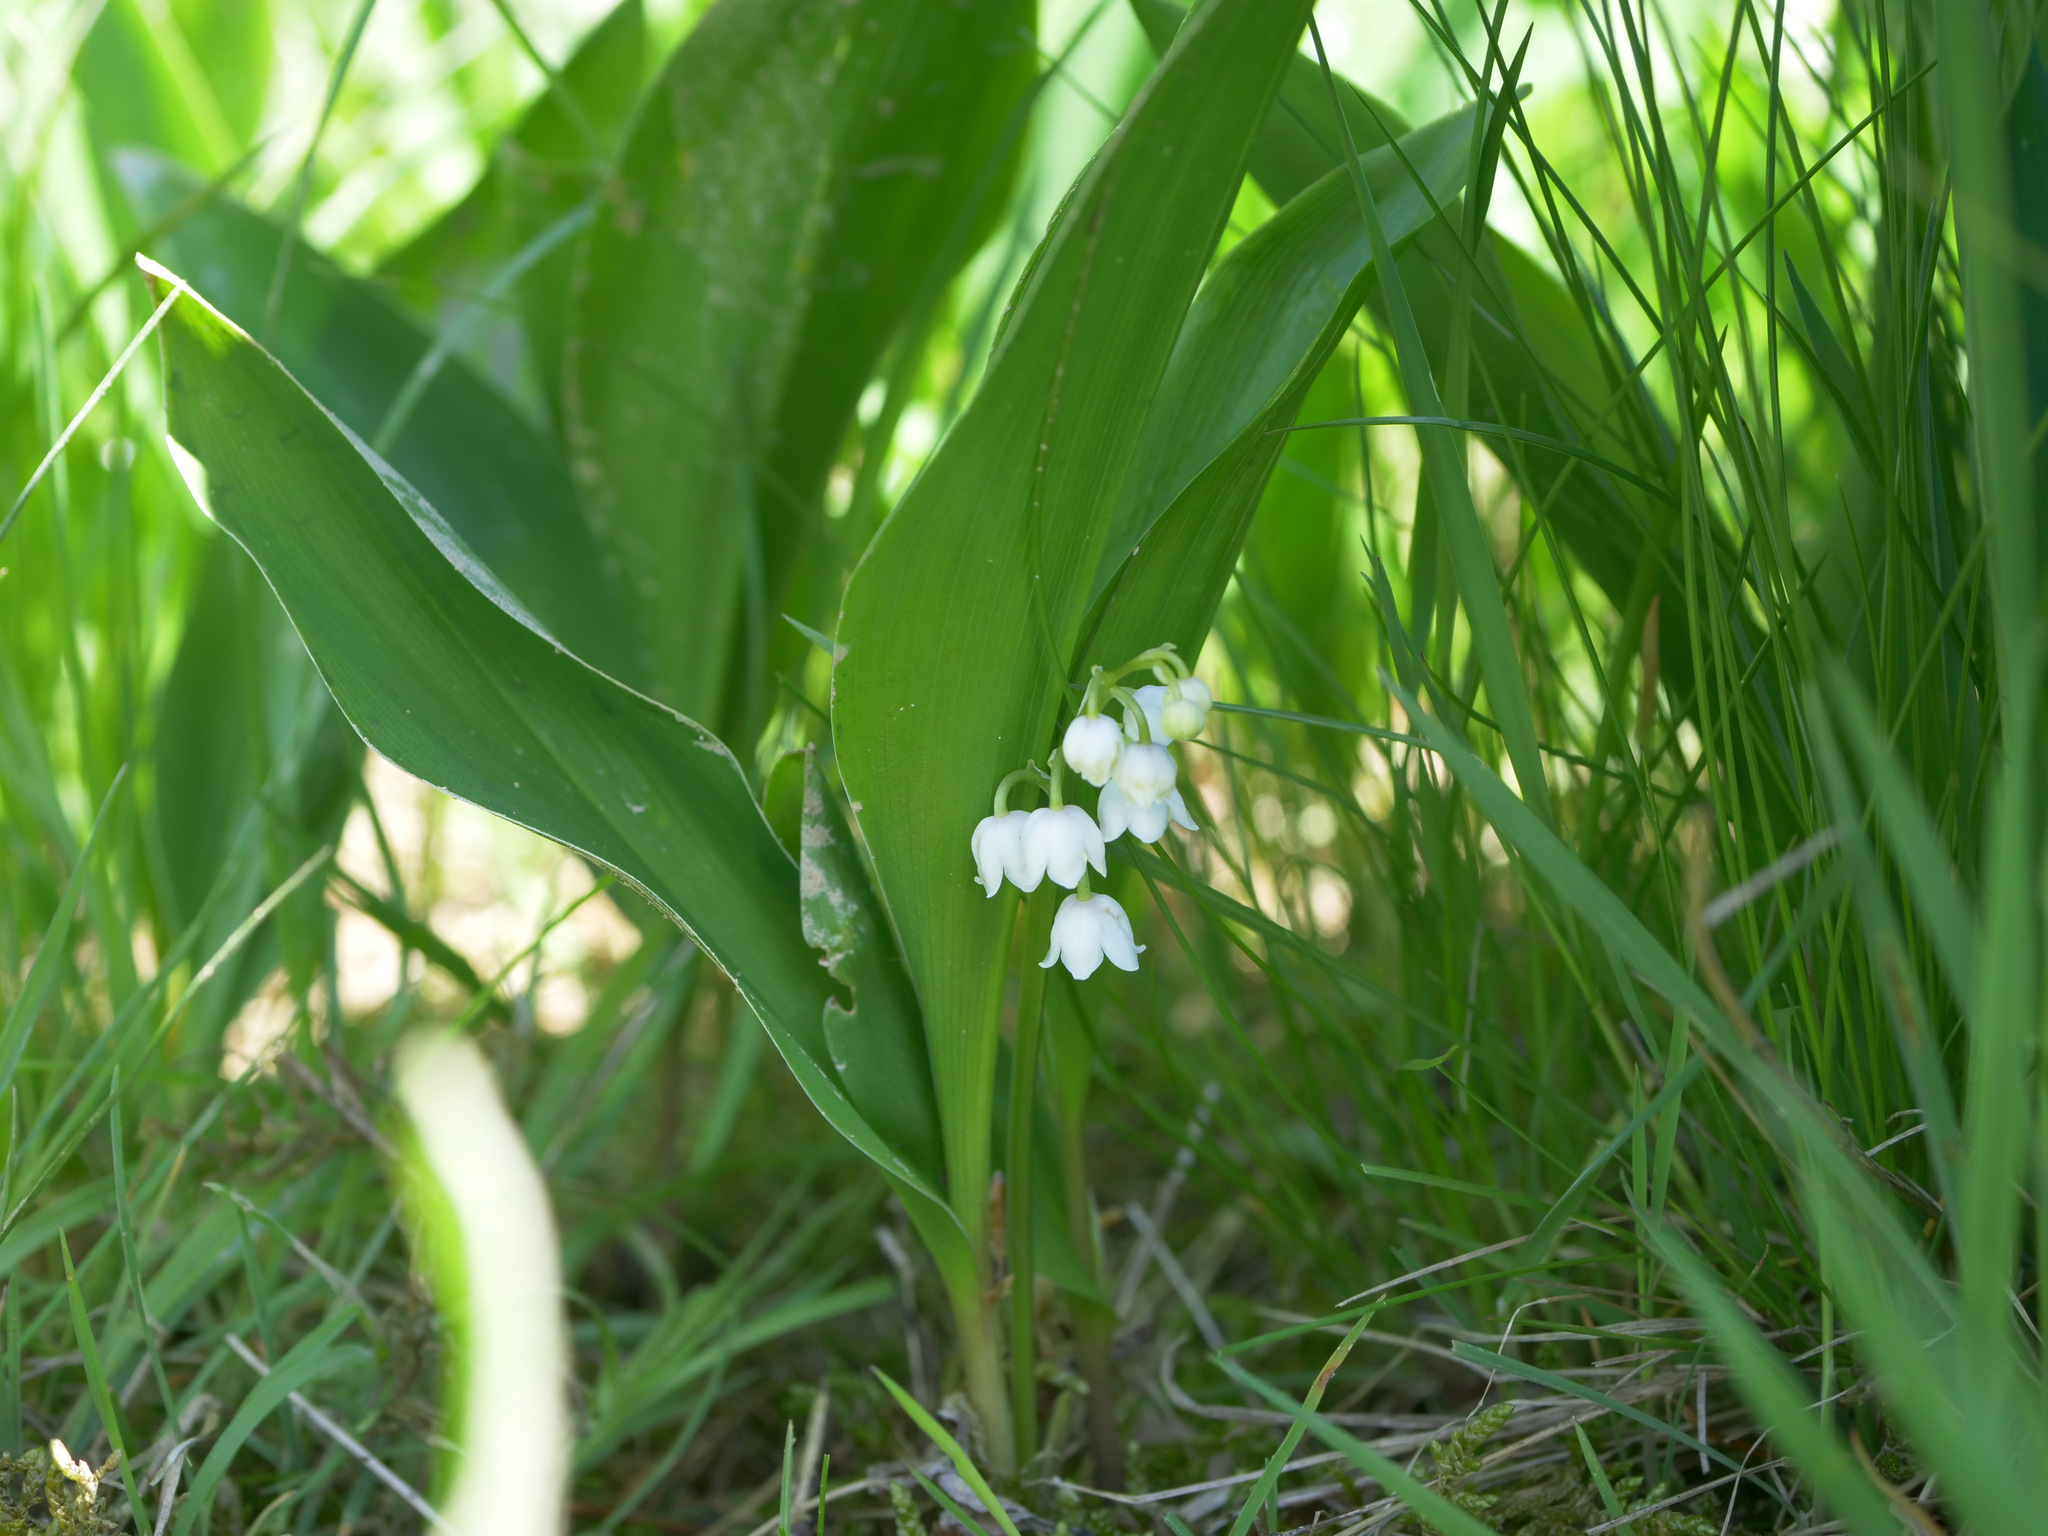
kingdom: Plantae
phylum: Tracheophyta
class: Liliopsida
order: Asparagales
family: Asparagaceae
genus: Convallaria
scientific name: Convallaria majalis
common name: Lily-of-the-valley
